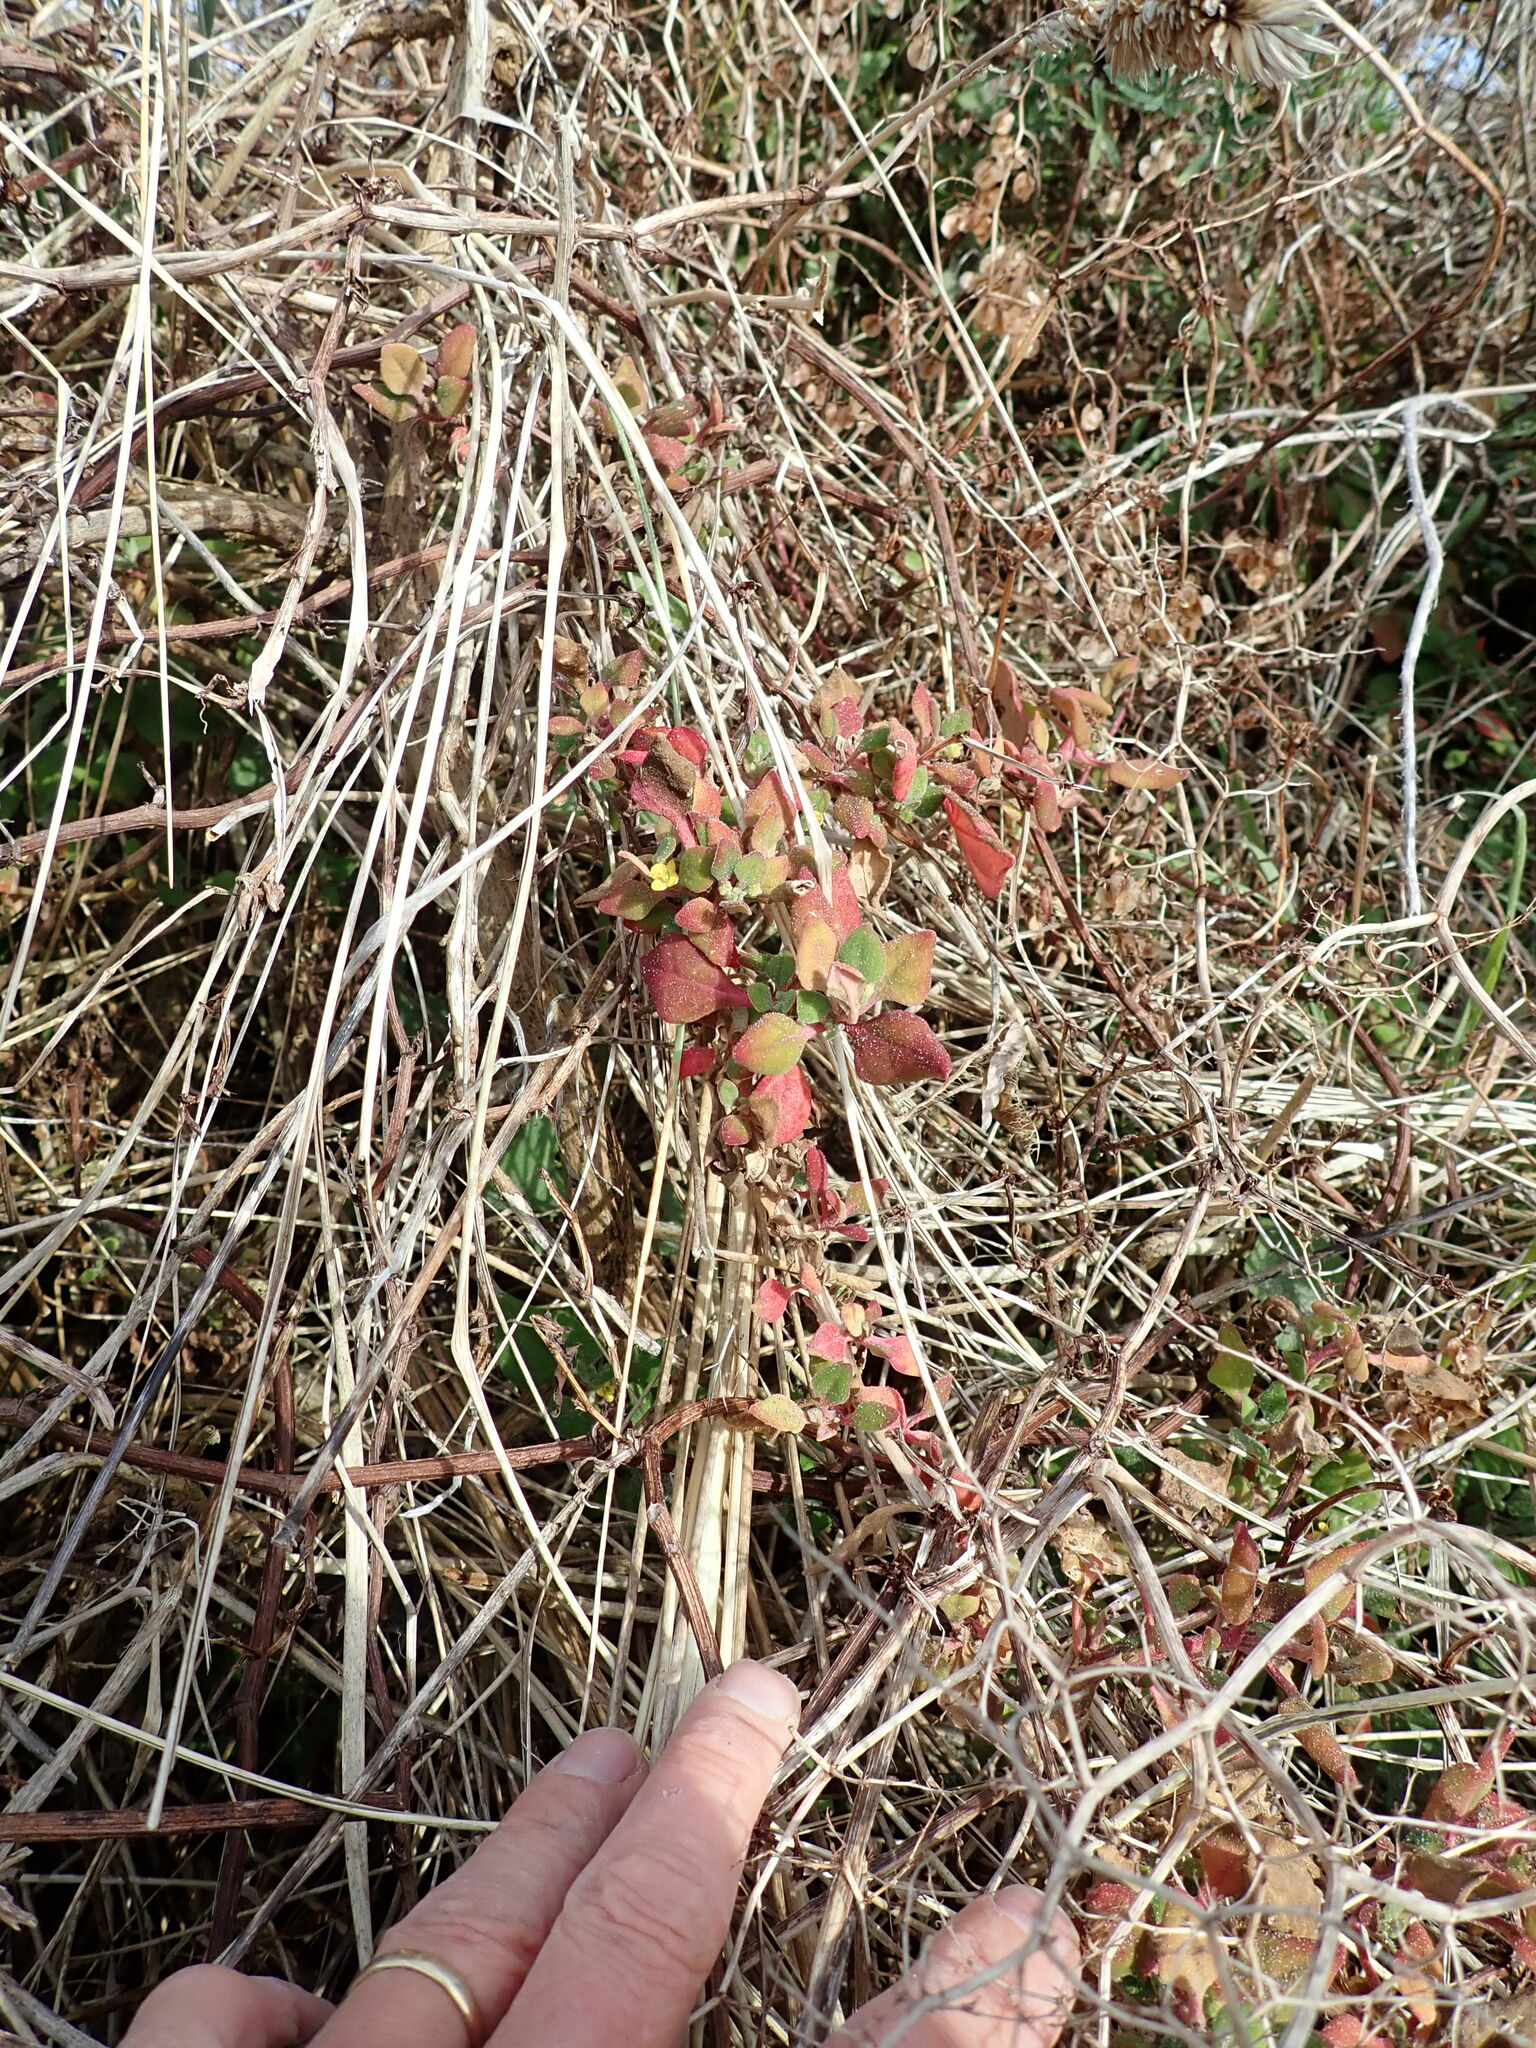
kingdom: Plantae
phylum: Tracheophyta
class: Magnoliopsida
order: Caryophyllales
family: Aizoaceae
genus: Tetragonia
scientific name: Tetragonia implexicoma
